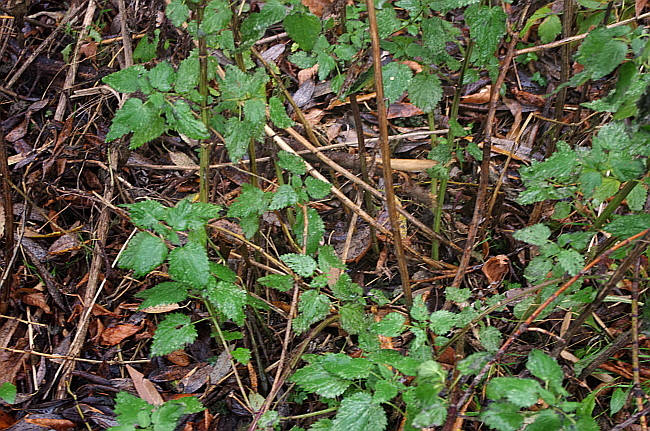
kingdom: Plantae
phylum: Tracheophyta
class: Magnoliopsida
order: Rosales
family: Urticaceae
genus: Urtica
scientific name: Urtica dioica
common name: Common nettle
